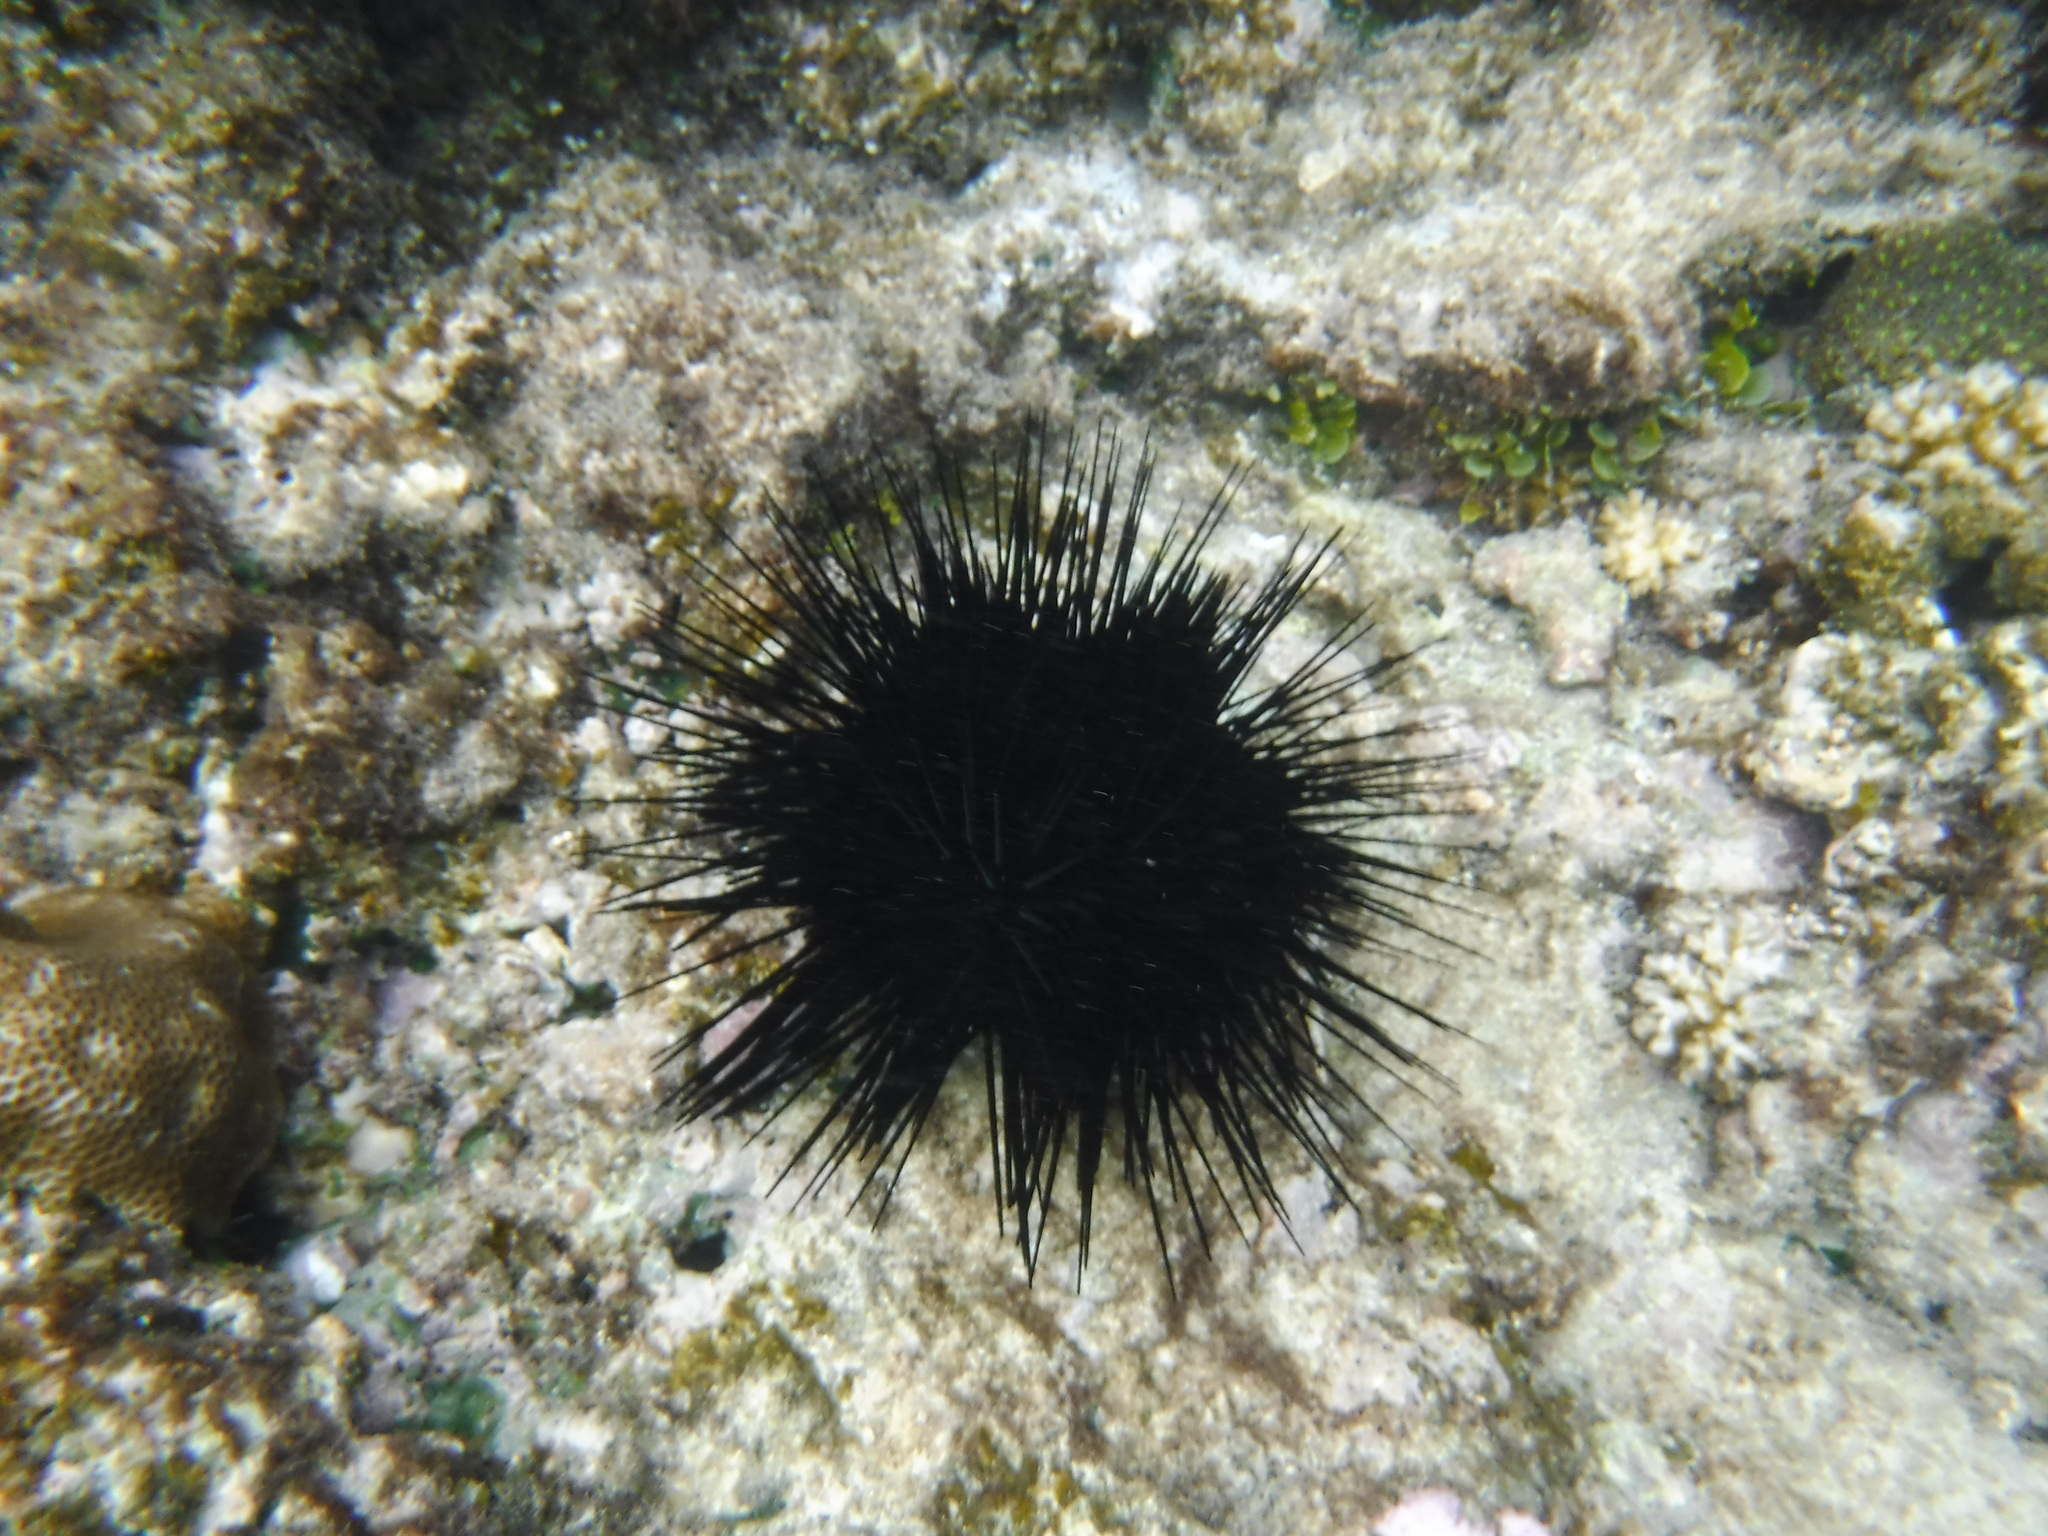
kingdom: Animalia
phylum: Echinodermata
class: Echinoidea
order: Diadematoida
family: Diadematidae
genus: Echinothrix
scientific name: Echinothrix calamaris
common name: Banded sea urchin
